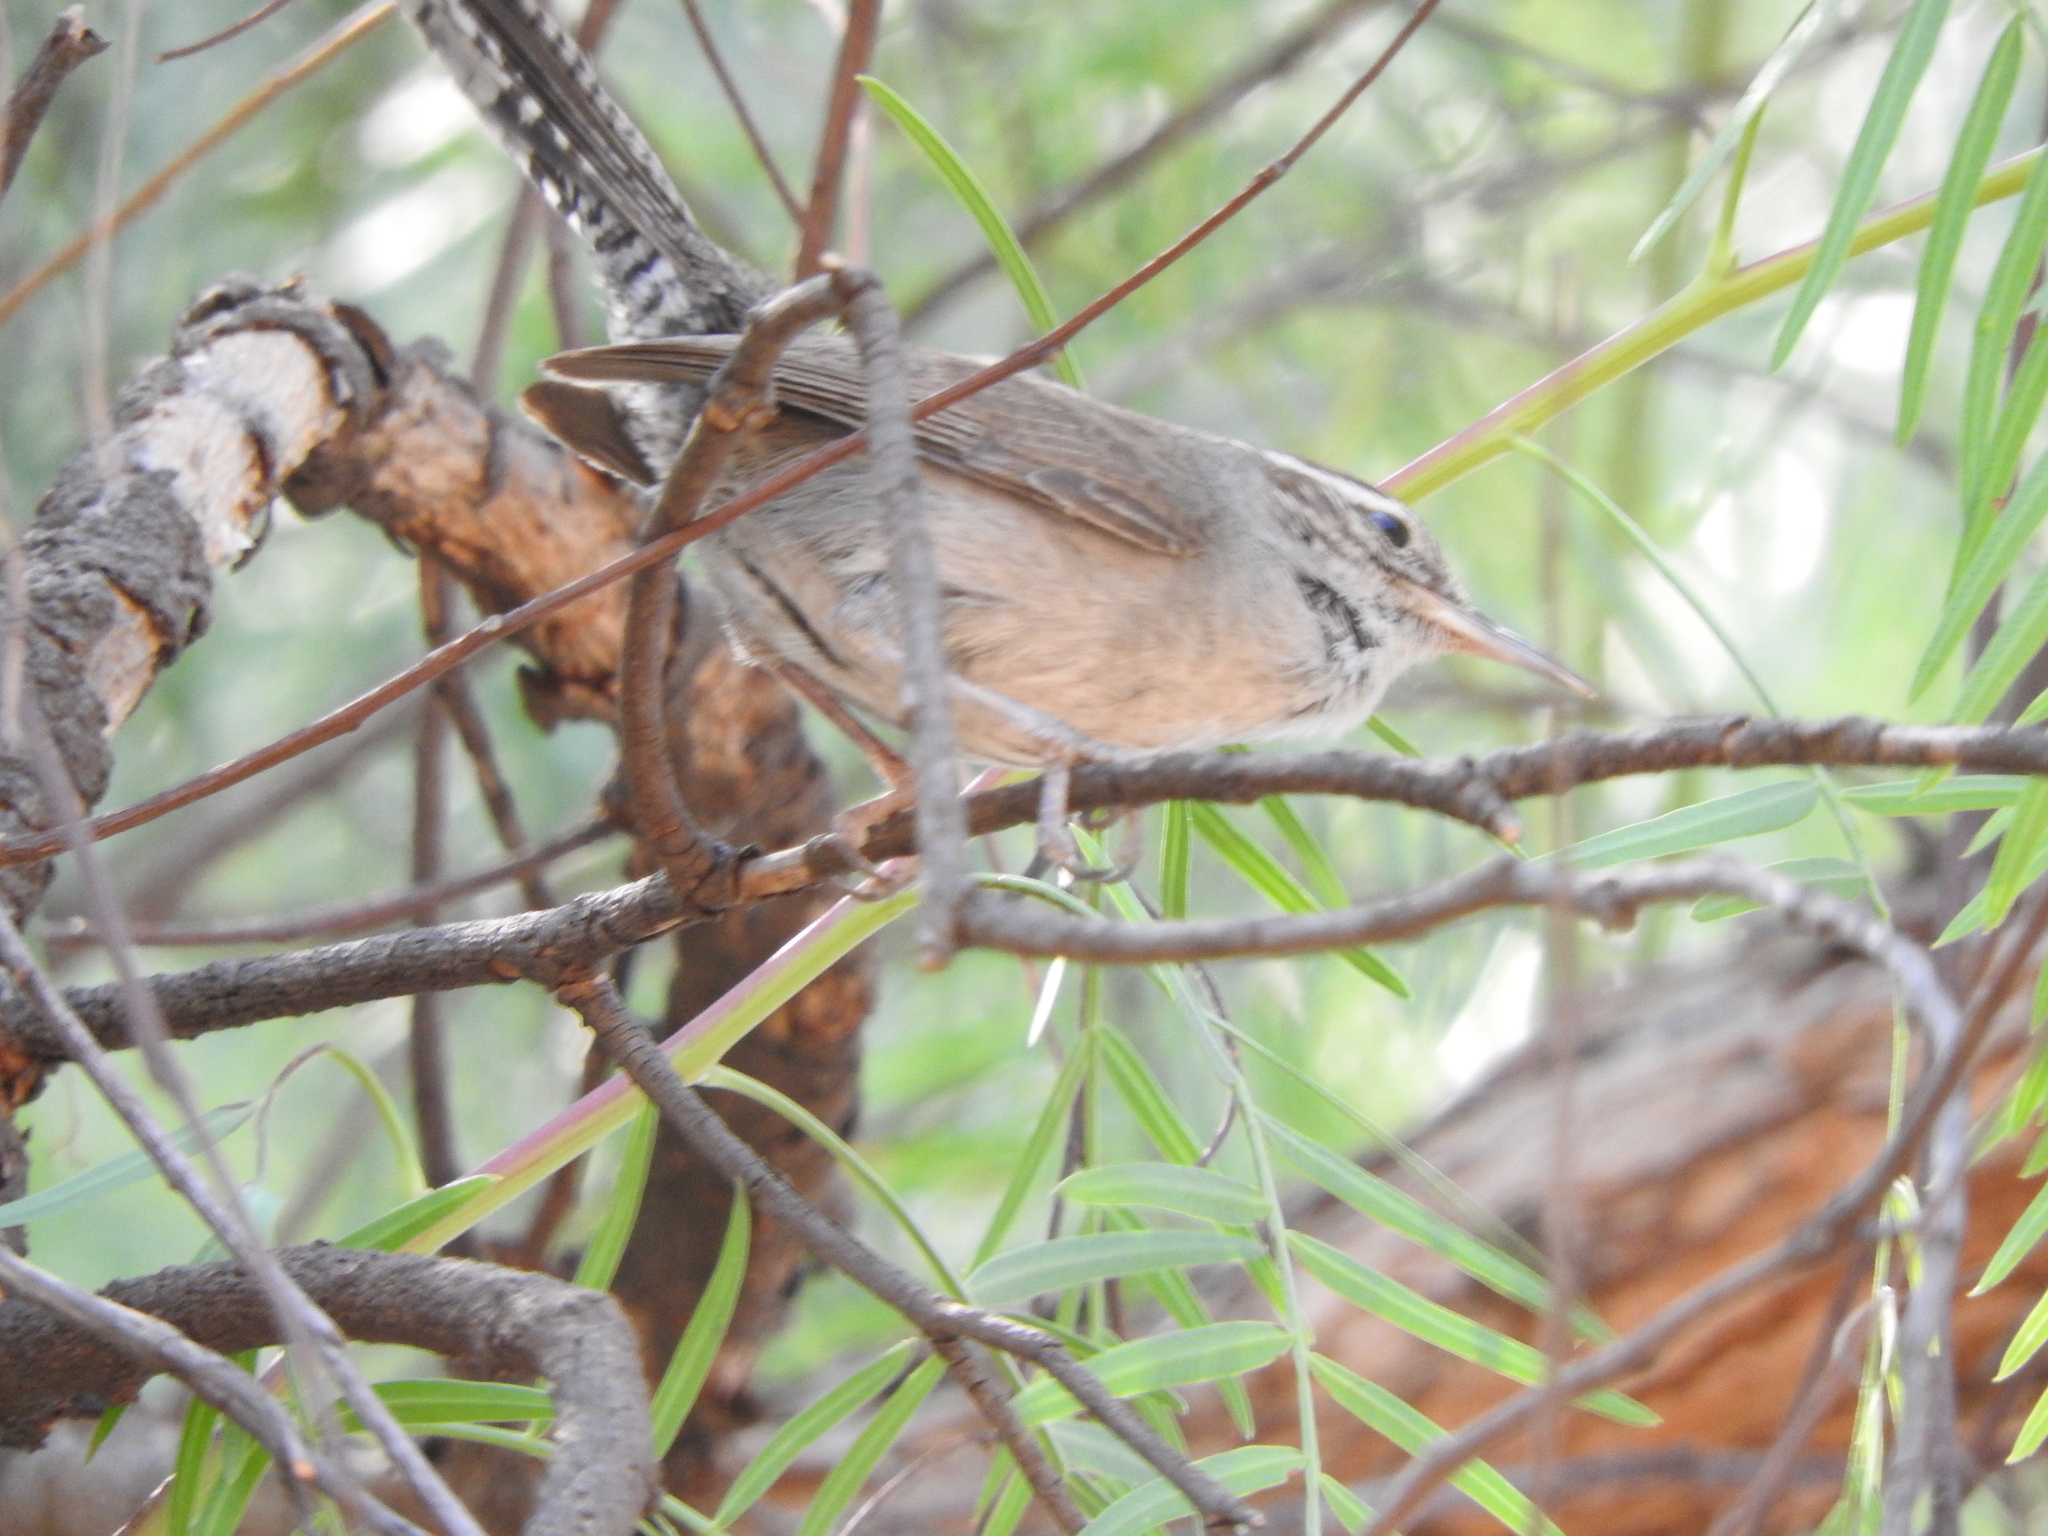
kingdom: Animalia
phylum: Chordata
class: Aves
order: Passeriformes
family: Troglodytidae
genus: Thryomanes
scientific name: Thryomanes bewickii
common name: Bewick's wren
